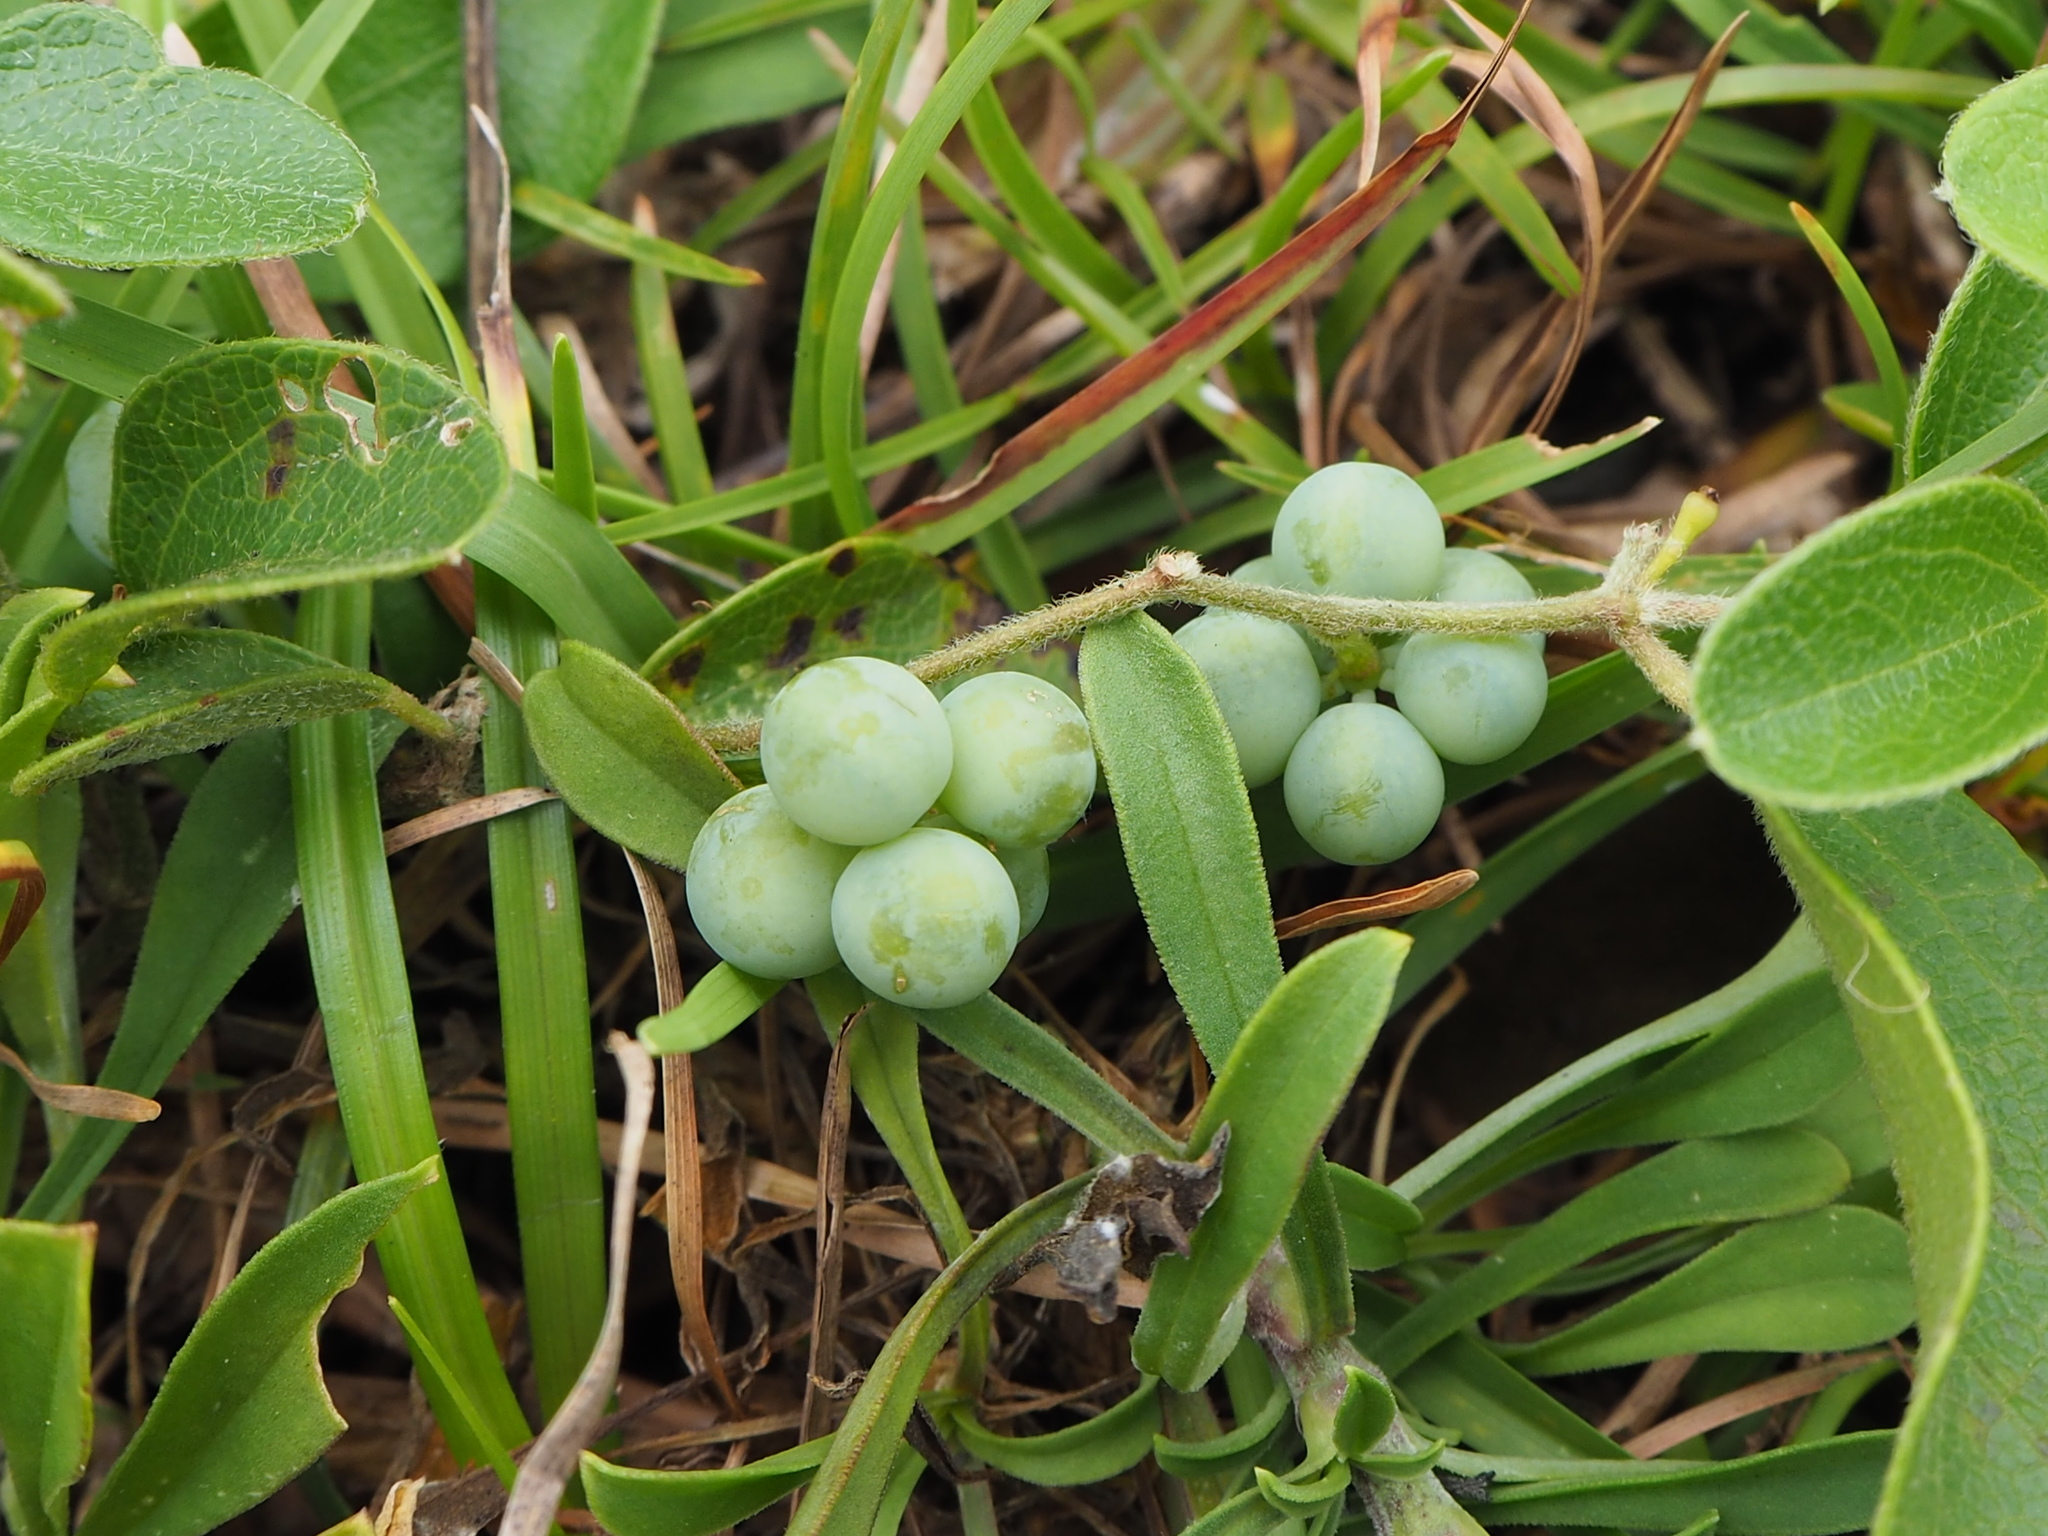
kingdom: Plantae
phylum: Tracheophyta
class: Magnoliopsida
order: Ranunculales
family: Menispermaceae
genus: Cocculus
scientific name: Cocculus orbiculatus
